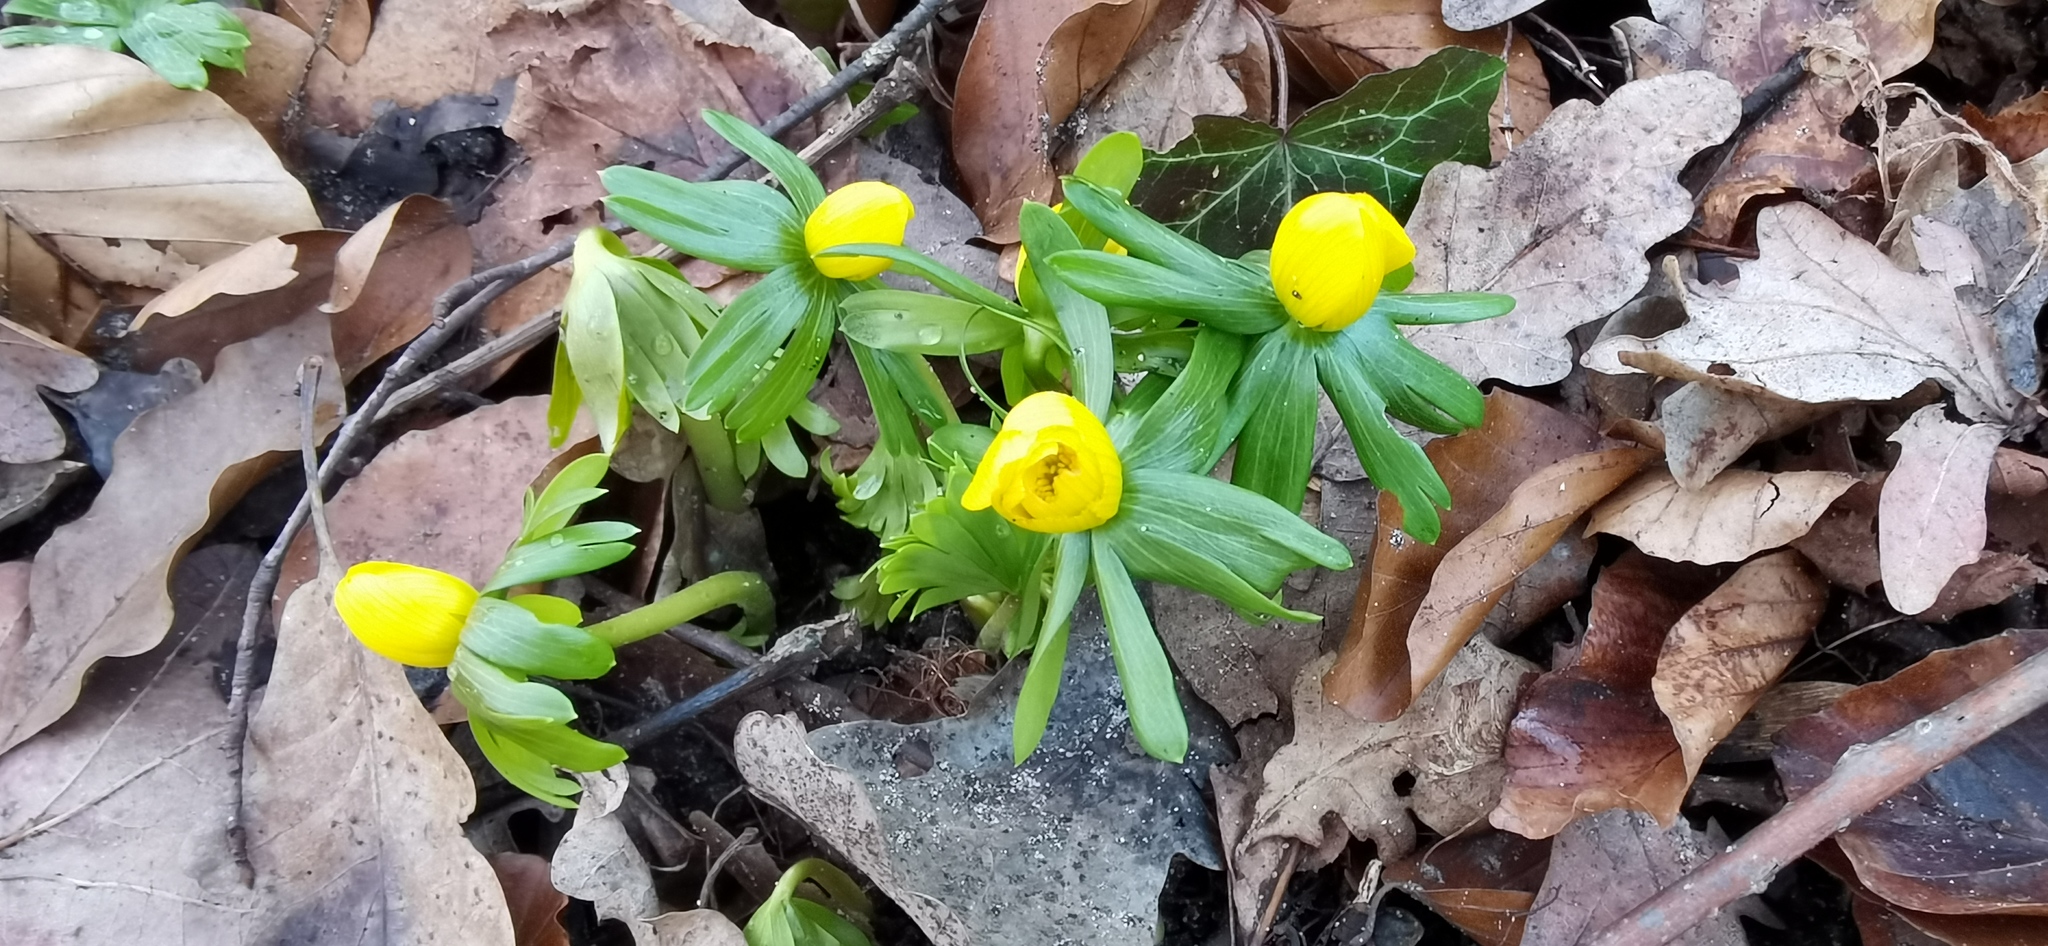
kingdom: Plantae
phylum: Tracheophyta
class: Magnoliopsida
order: Ranunculales
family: Ranunculaceae
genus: Eranthis
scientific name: Eranthis hyemalis
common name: Winter aconite
